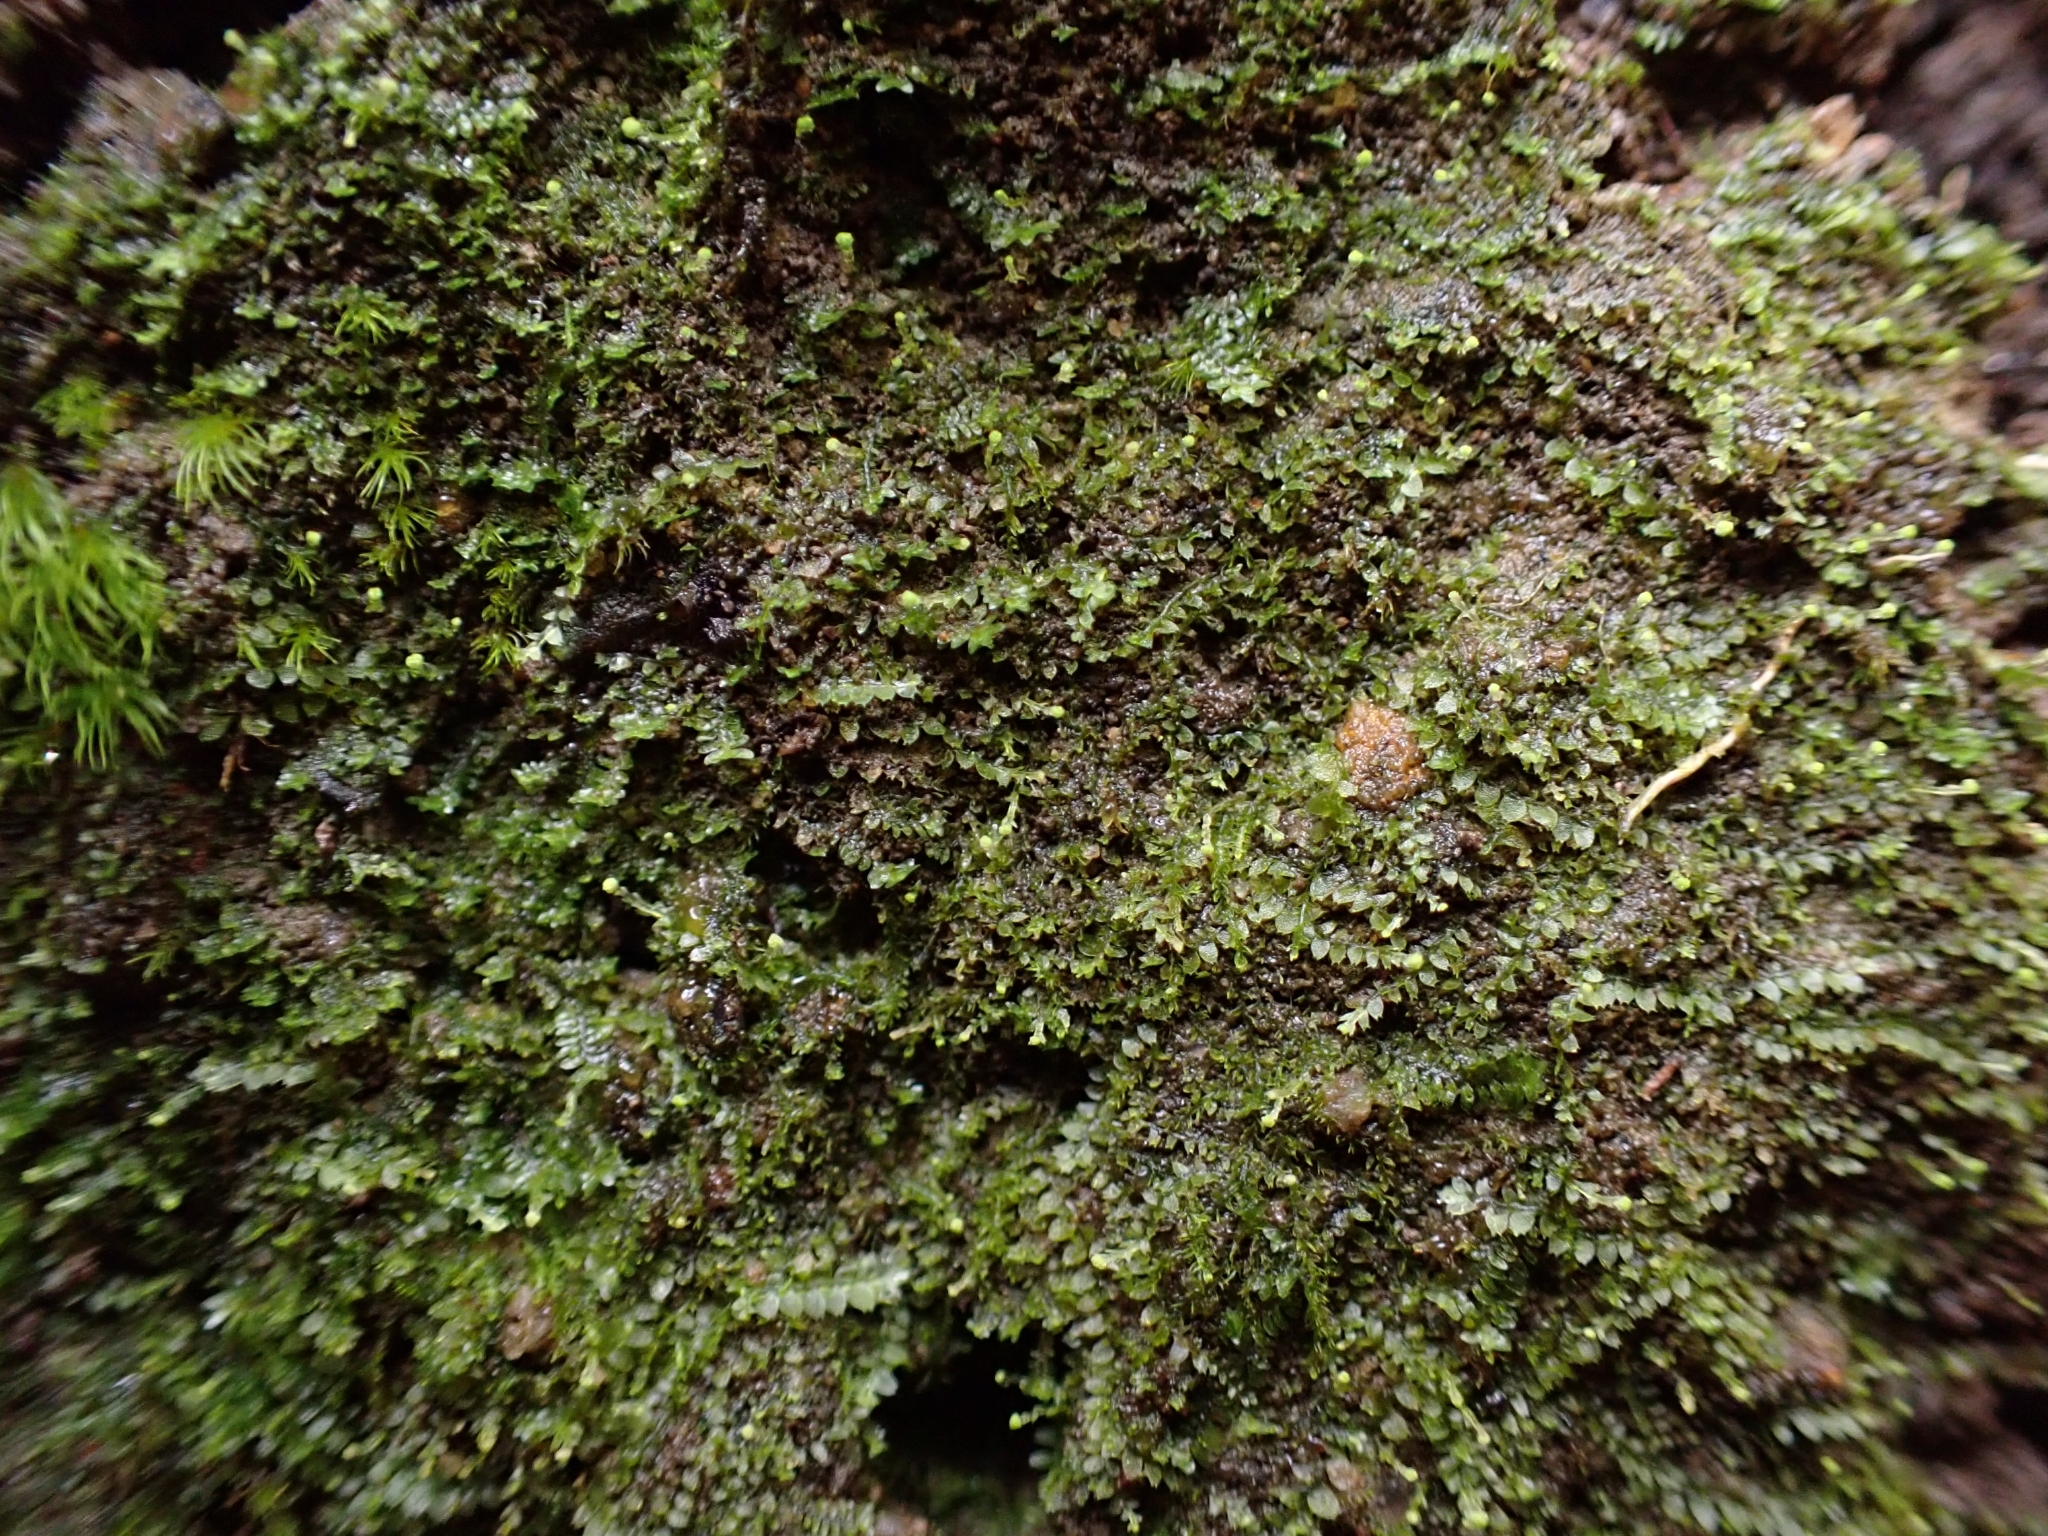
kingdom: Plantae
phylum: Marchantiophyta
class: Jungermanniopsida
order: Jungermanniales
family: Calypogeiaceae
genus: Asperifolia
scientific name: Asperifolia arguta
